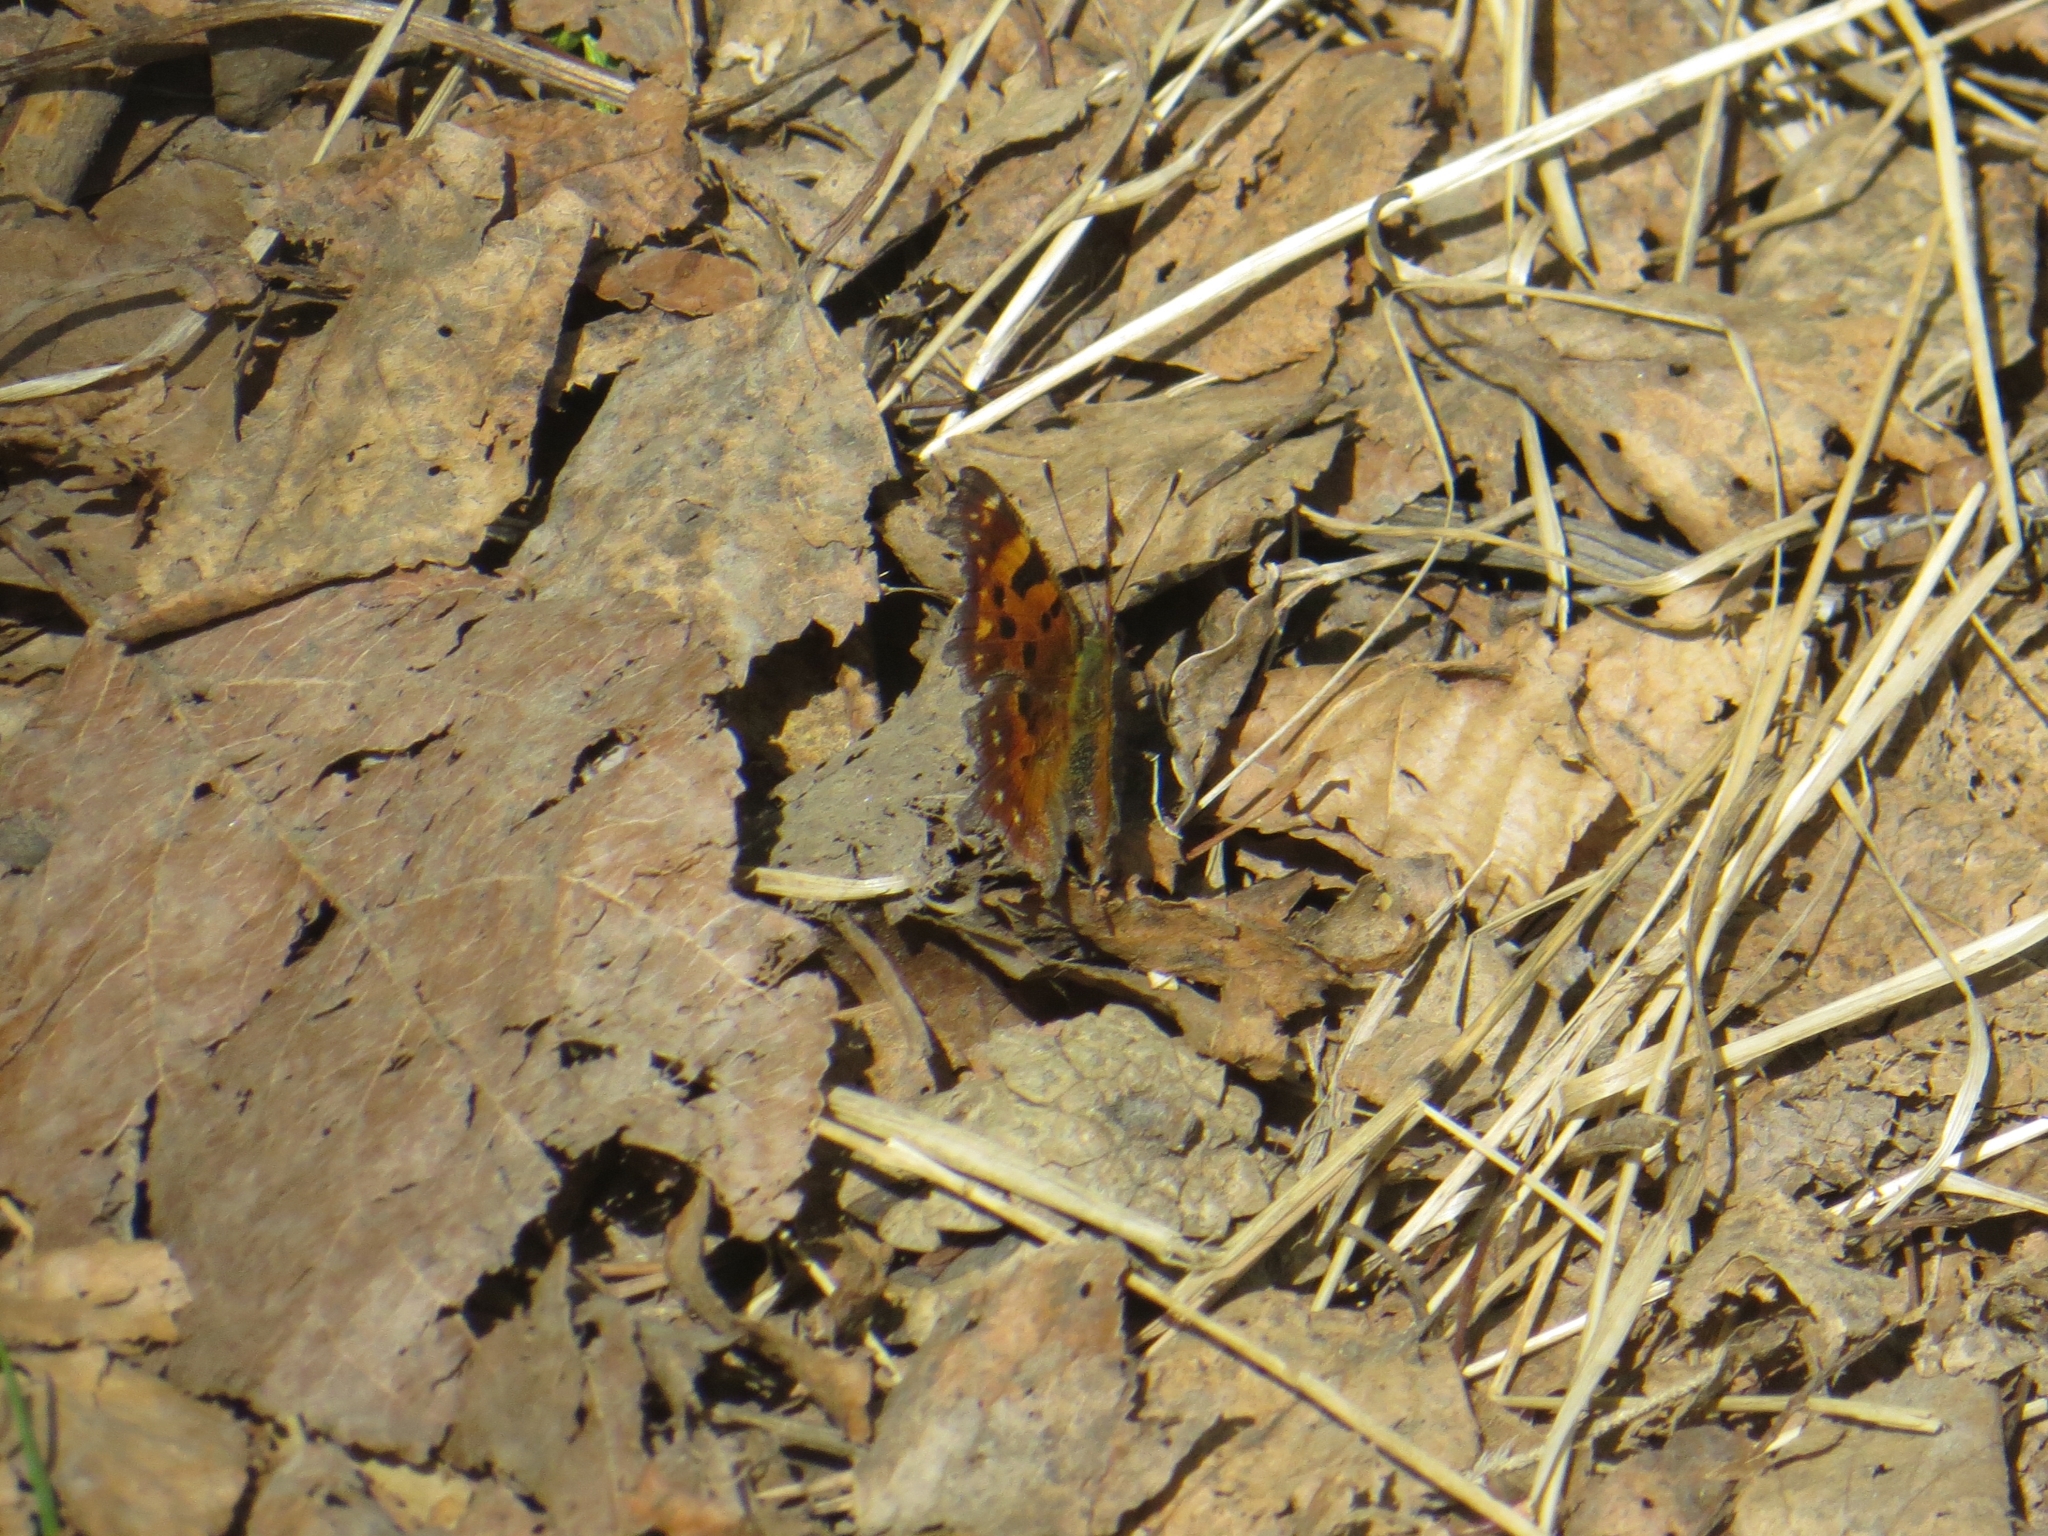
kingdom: Animalia
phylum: Arthropoda
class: Insecta
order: Lepidoptera
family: Nymphalidae
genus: Polygonia
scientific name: Polygonia c-album
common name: Comma
